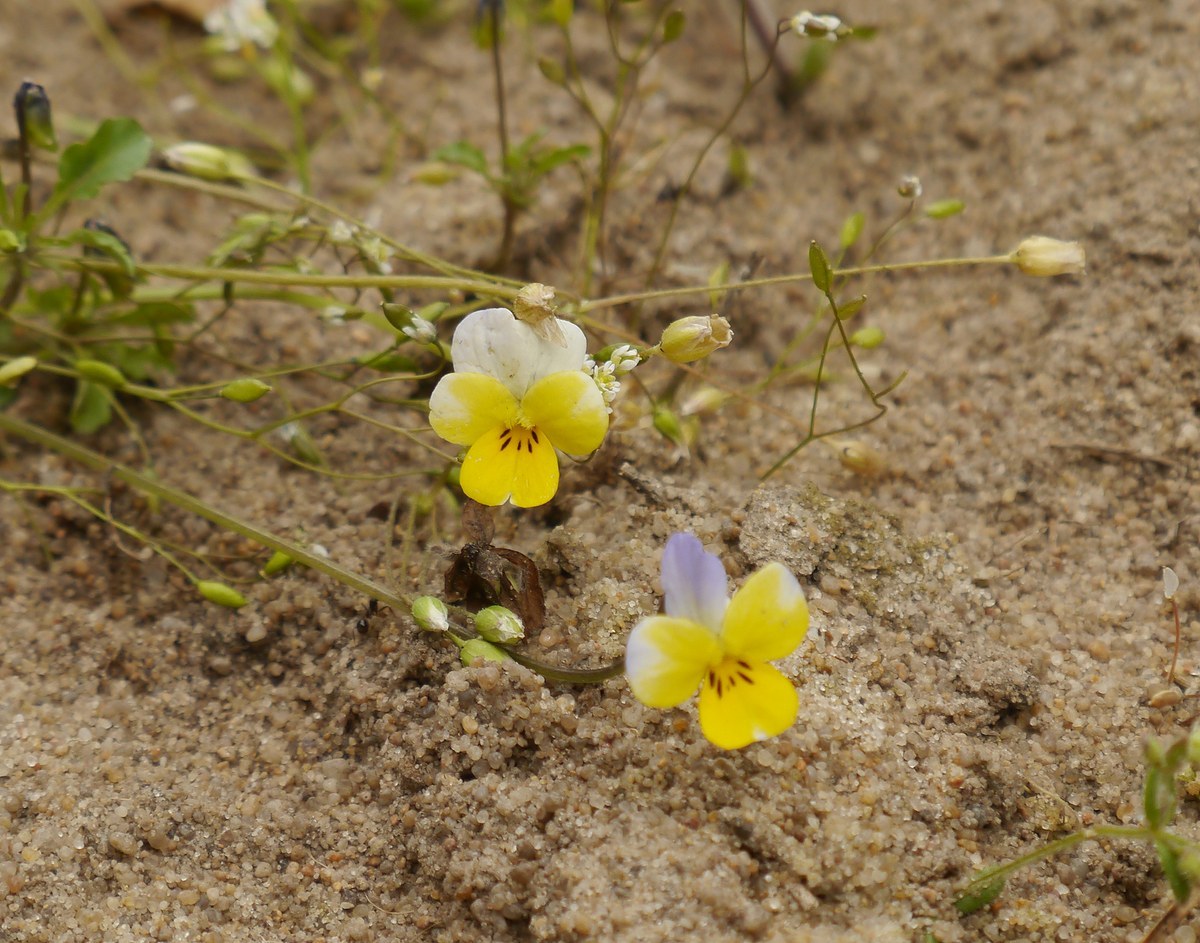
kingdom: Plantae
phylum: Tracheophyta
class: Magnoliopsida
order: Malpighiales
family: Violaceae
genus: Viola
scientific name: Viola hymettia
